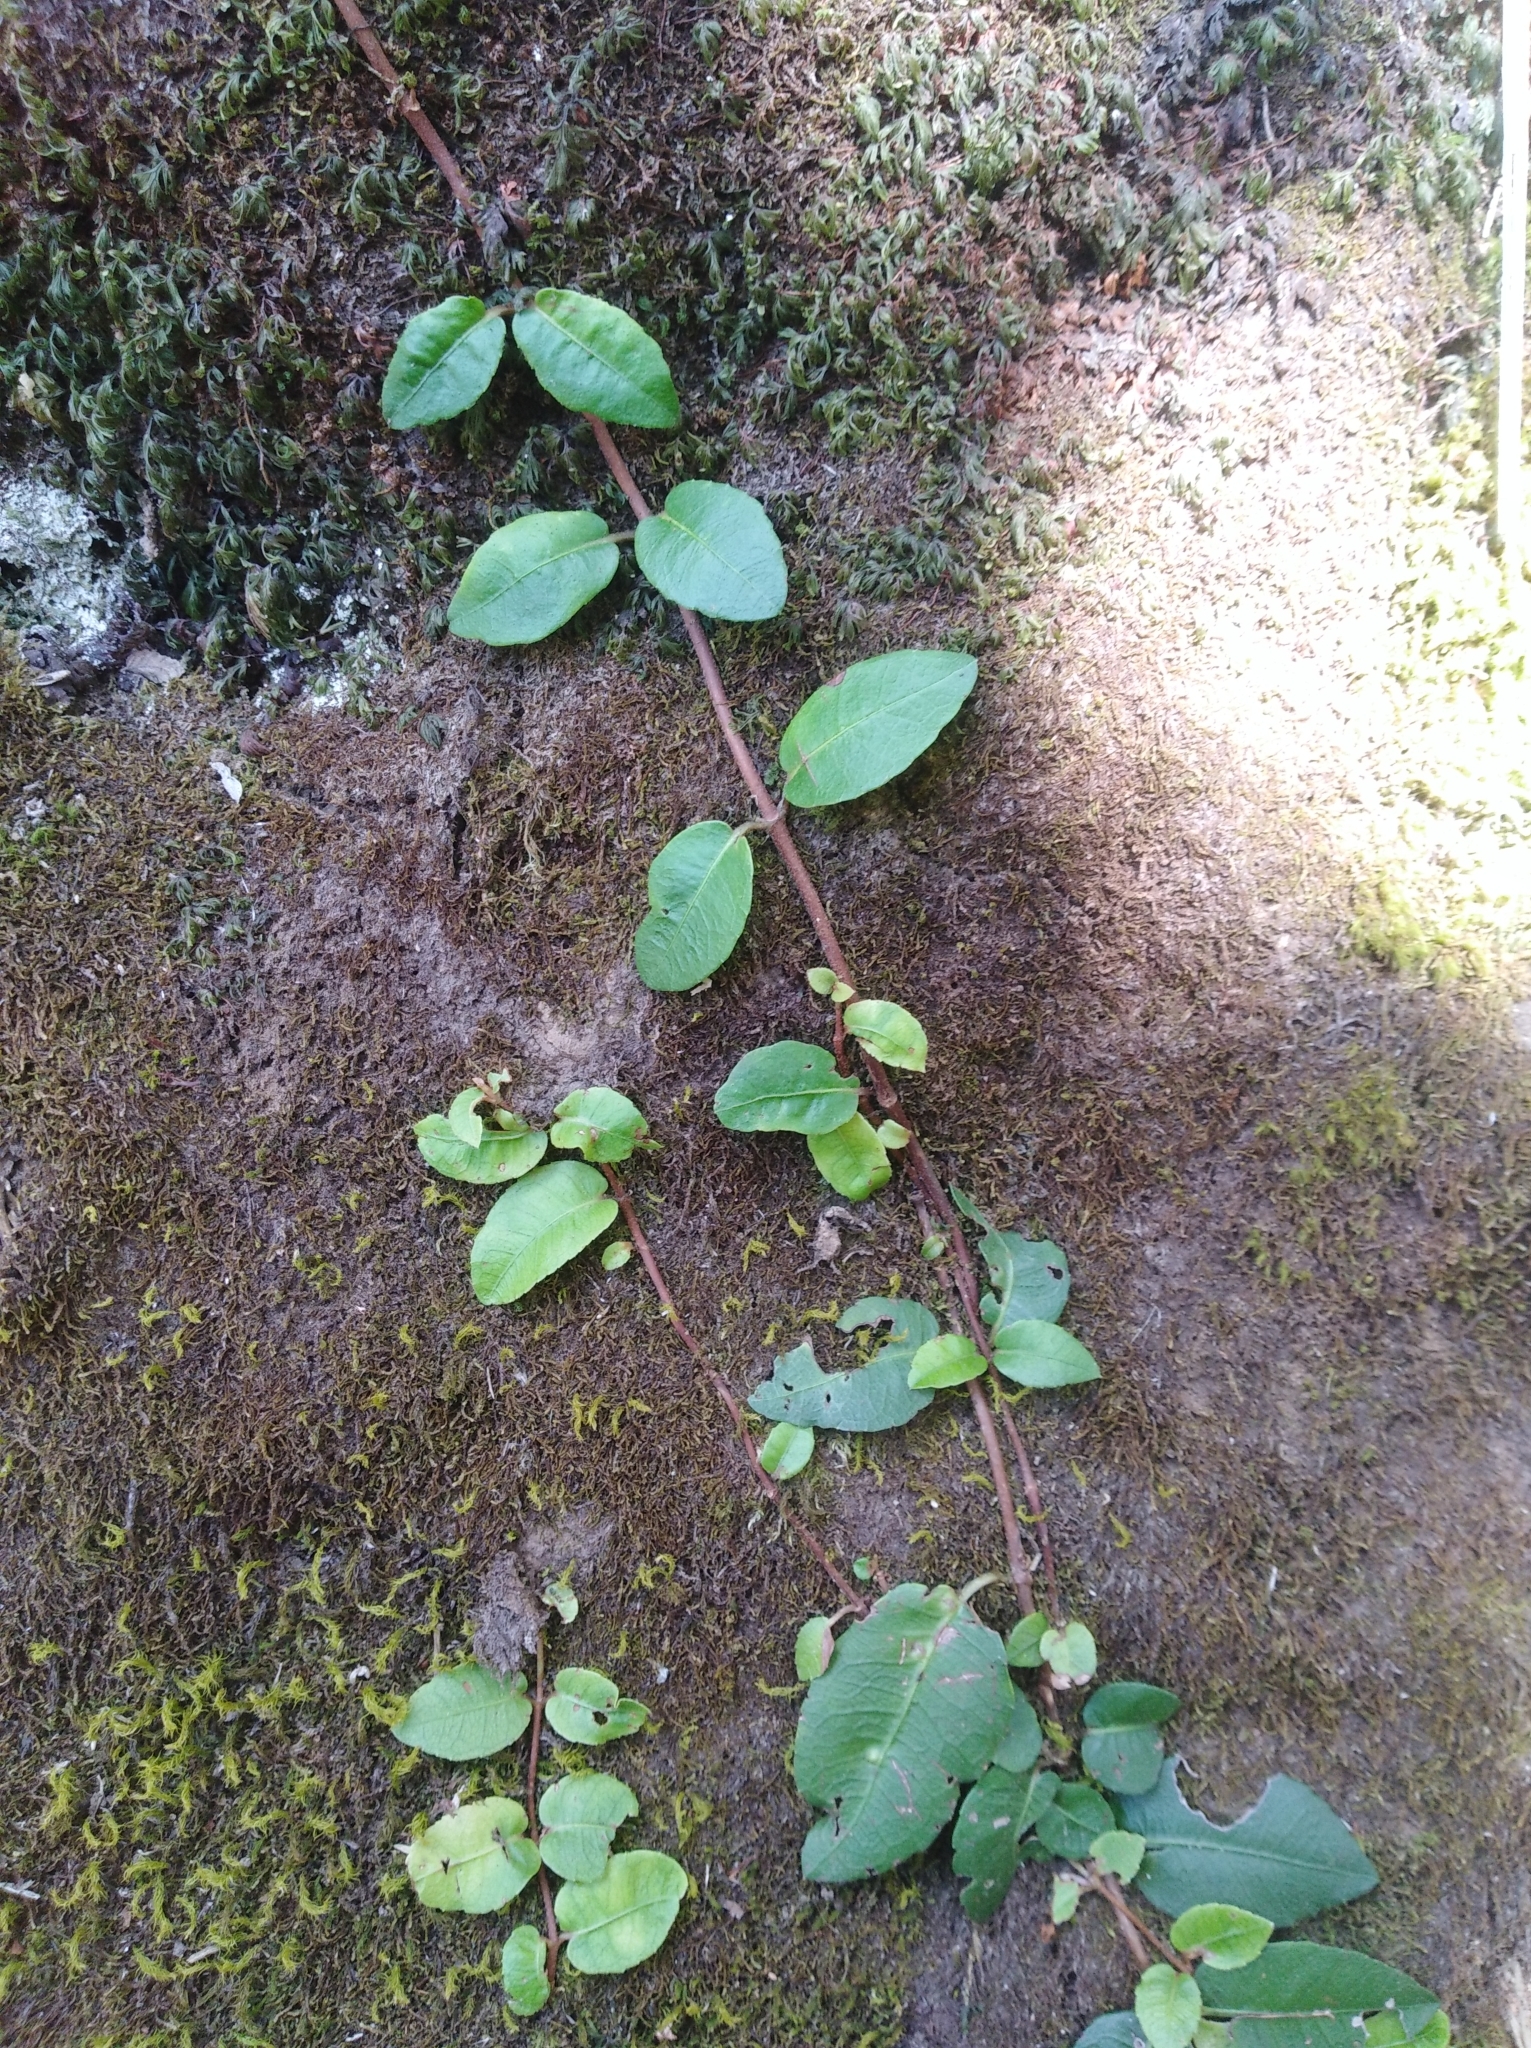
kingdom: Plantae
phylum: Tracheophyta
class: Magnoliopsida
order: Cornales
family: Hydrangeaceae
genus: Hydrangea
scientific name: Hydrangea serratifolia
